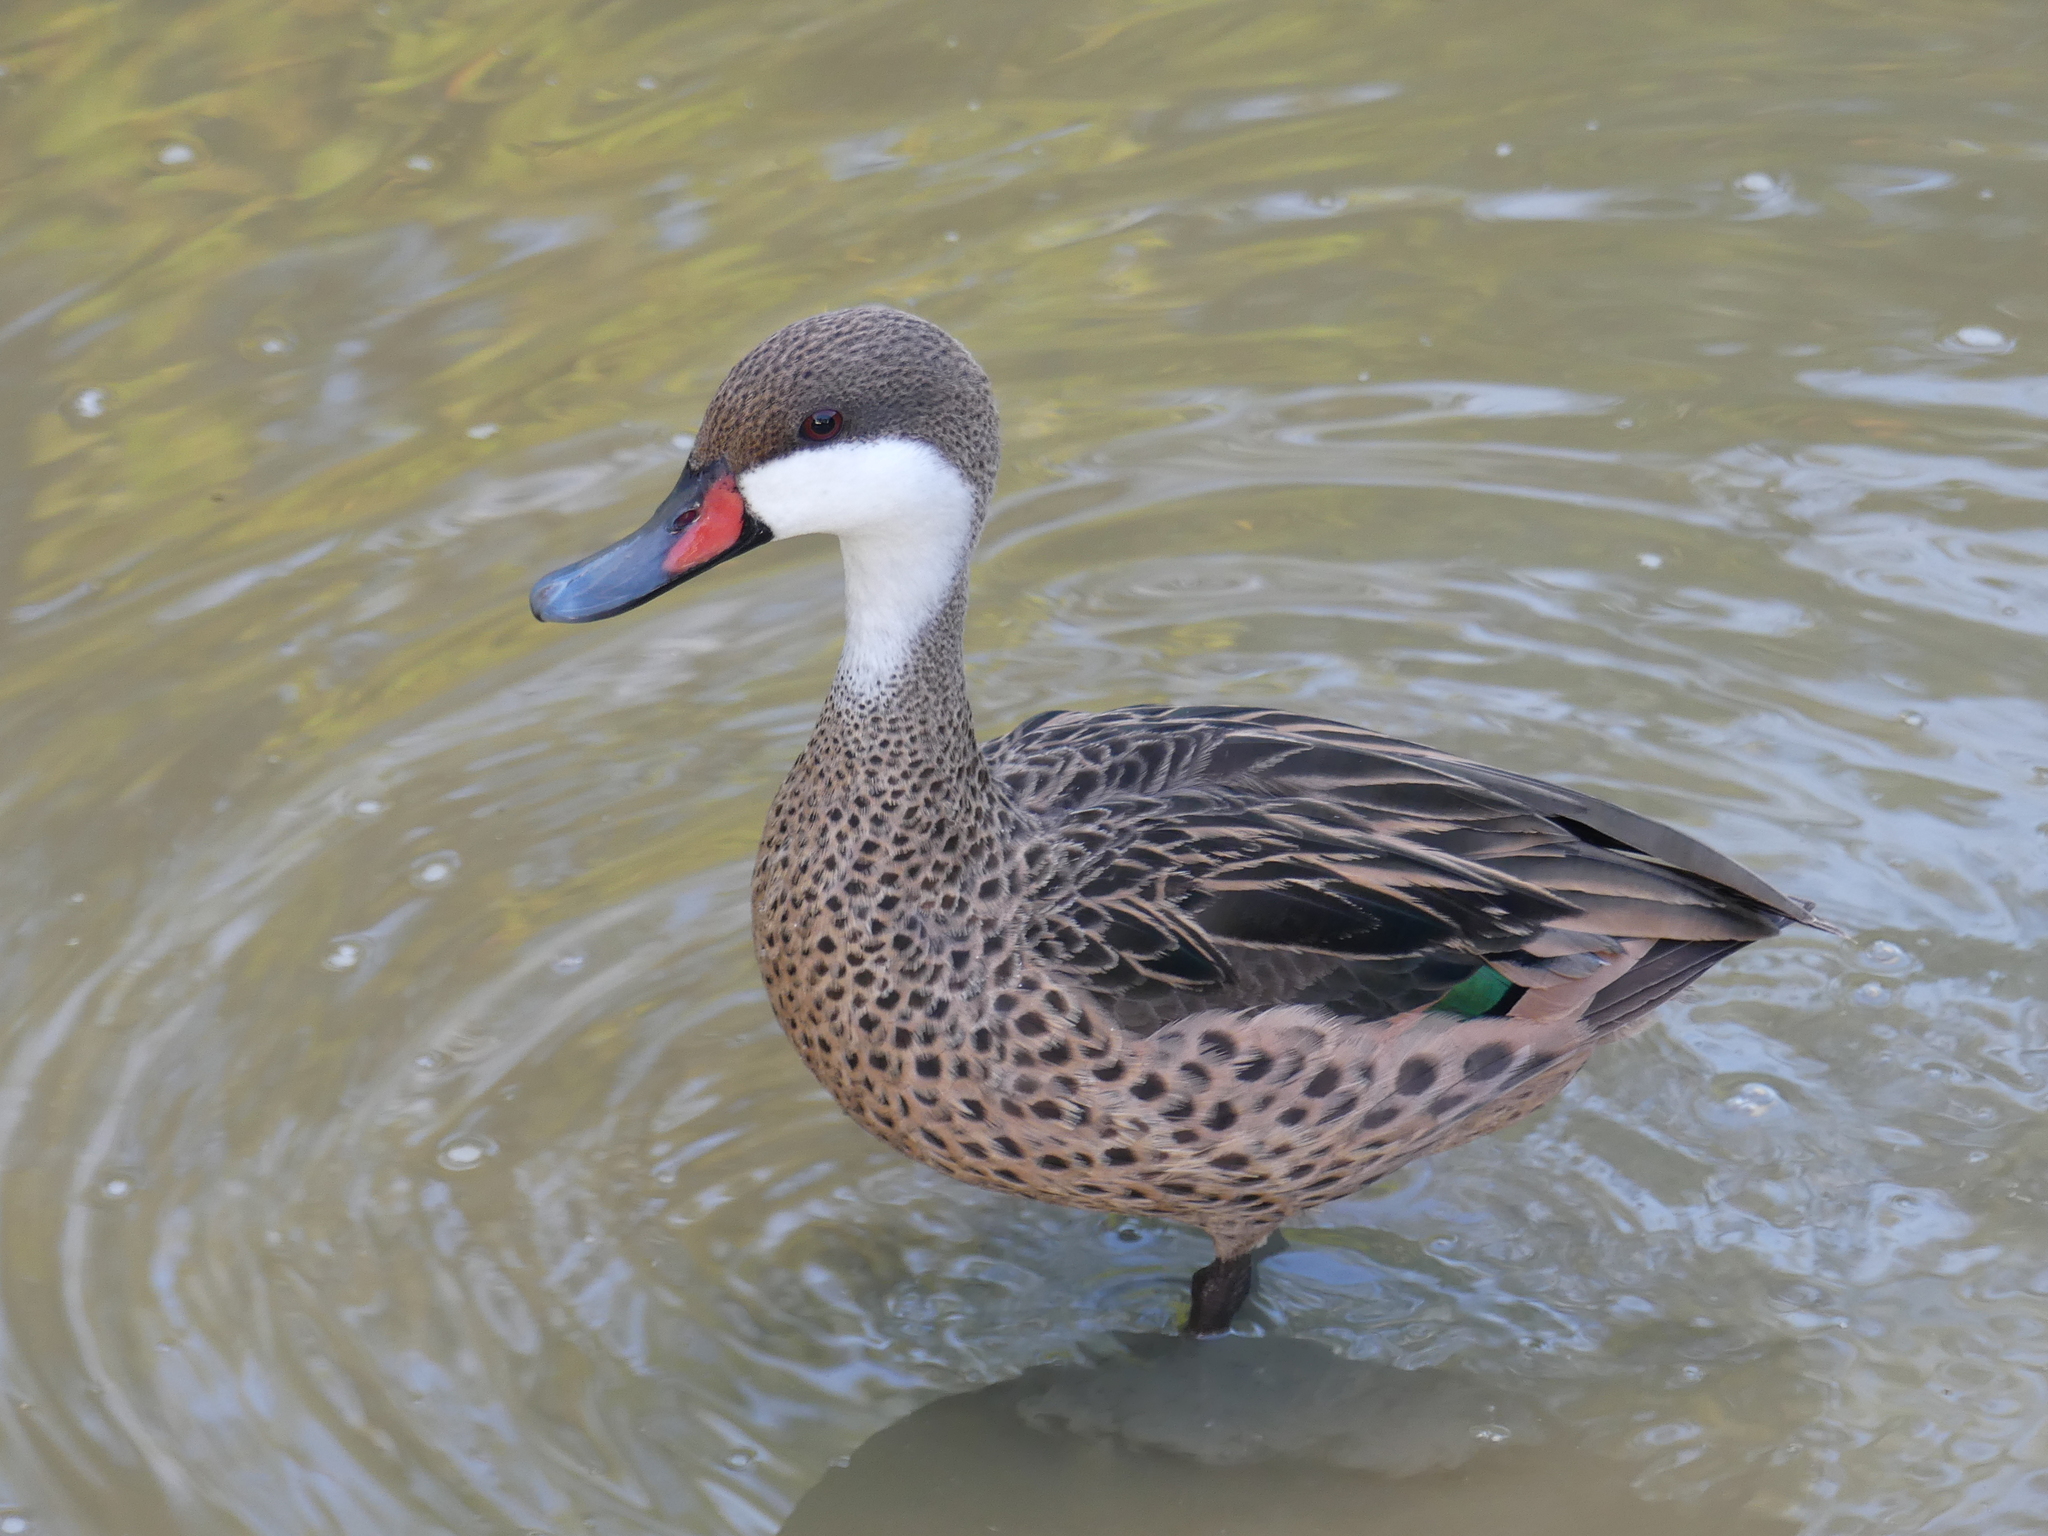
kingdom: Animalia
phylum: Chordata
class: Aves
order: Anseriformes
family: Anatidae
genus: Anas
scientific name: Anas bahamensis
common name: White-cheeked pintail
